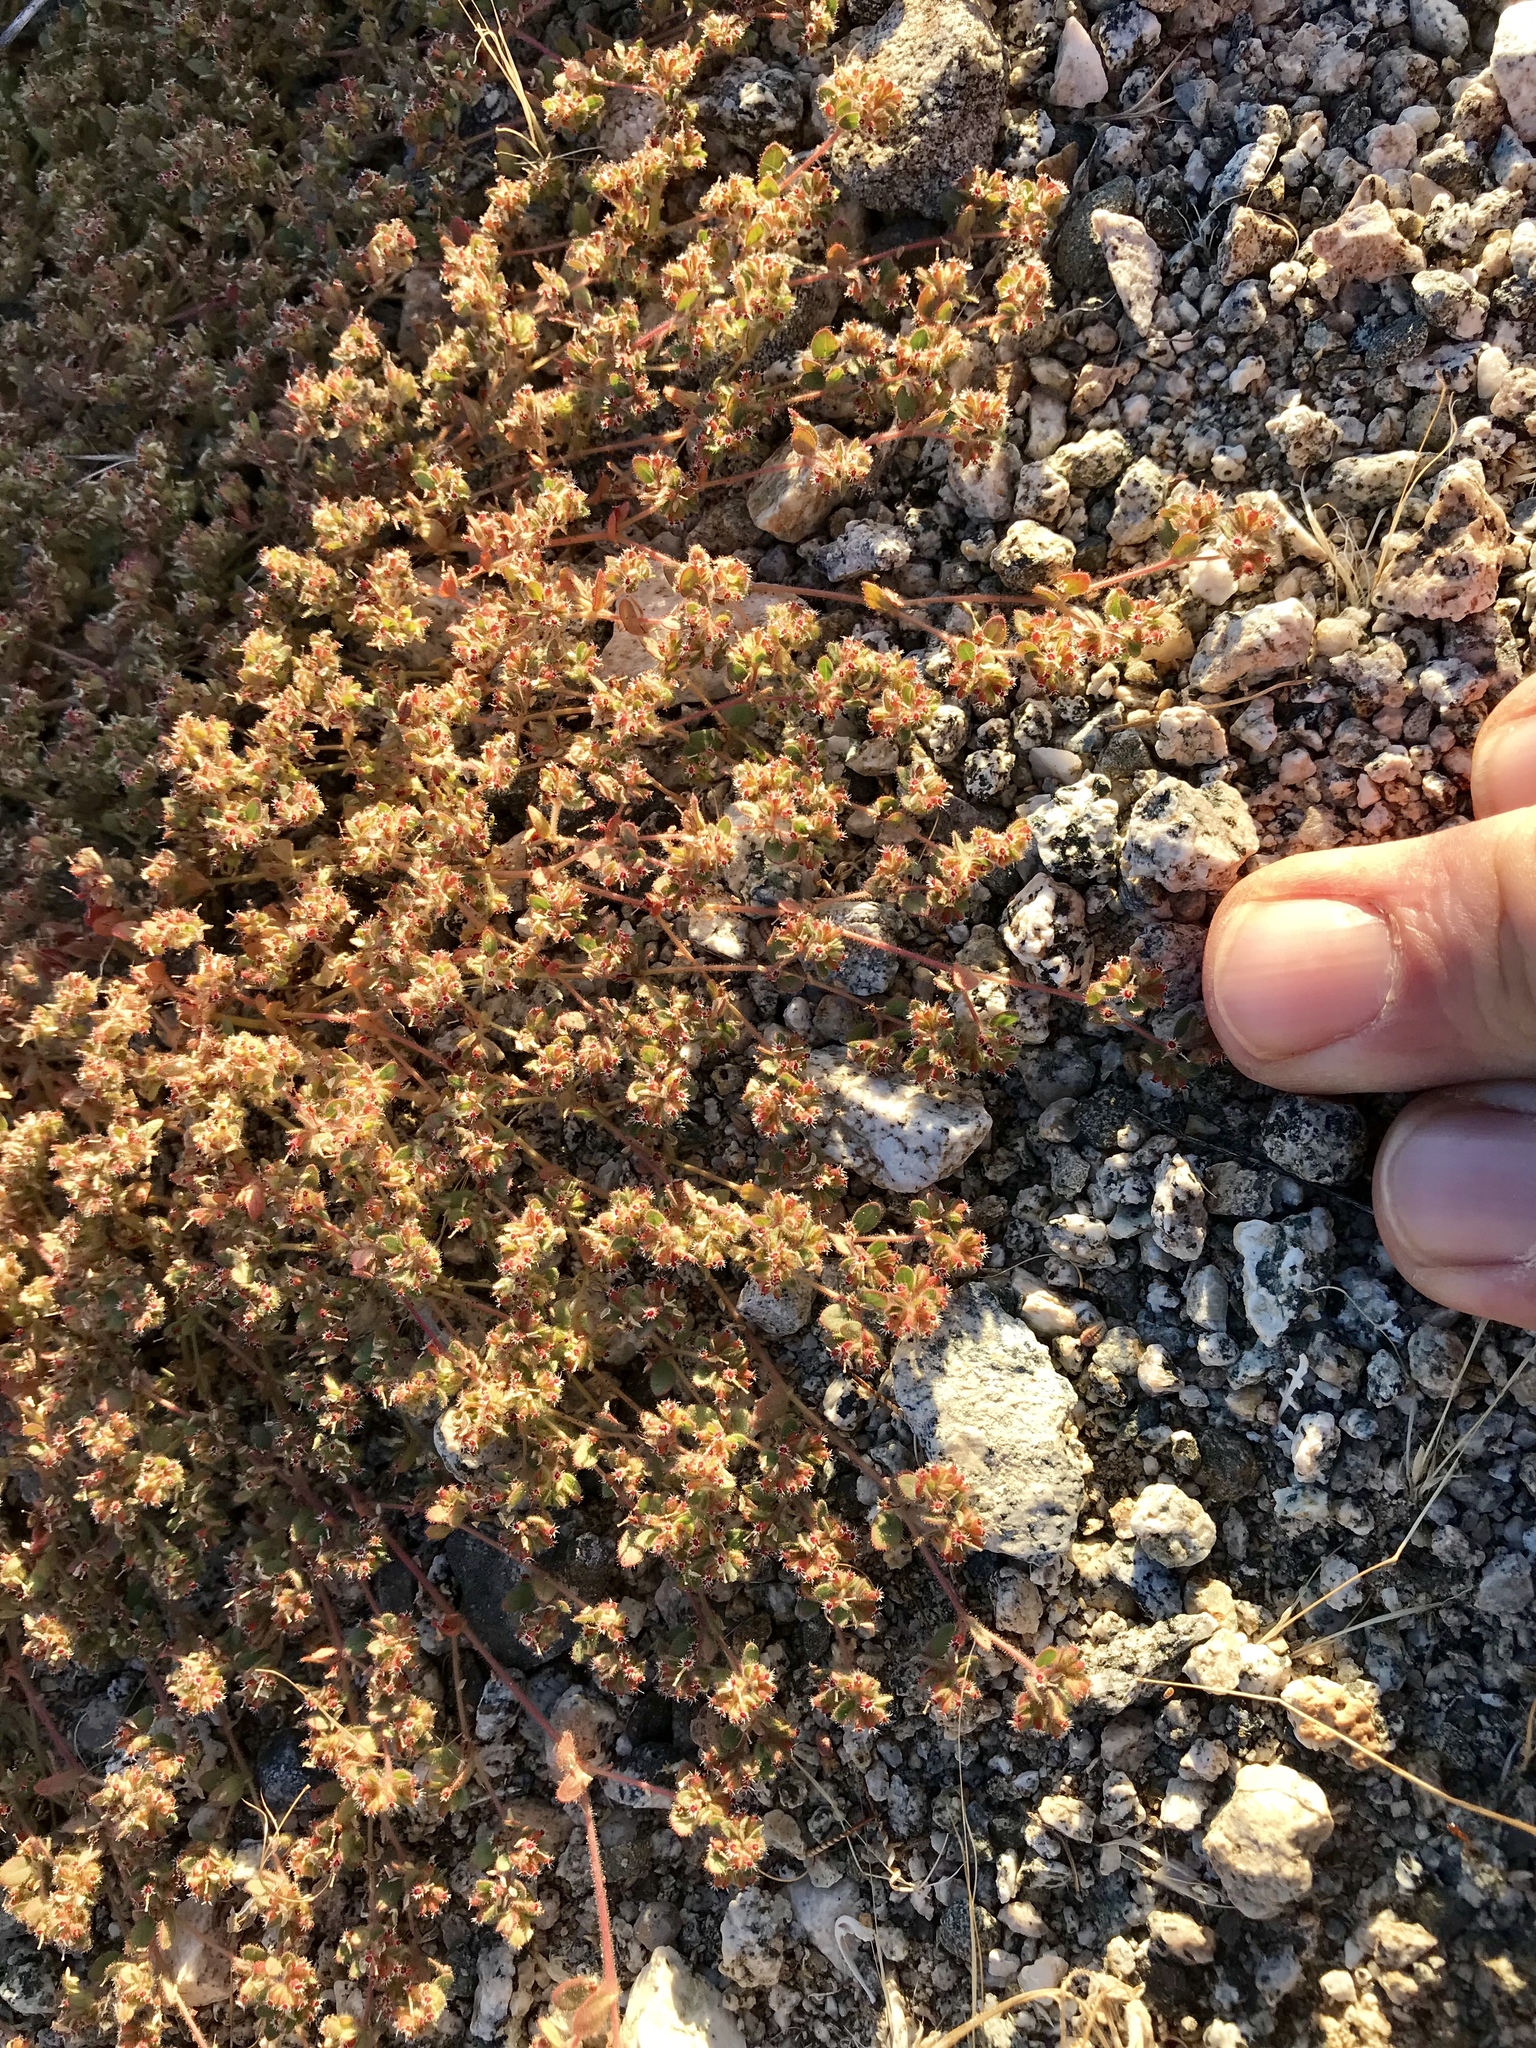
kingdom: Plantae
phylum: Tracheophyta
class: Magnoliopsida
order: Malpighiales
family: Euphorbiaceae
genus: Euphorbia
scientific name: Euphorbia setiloba
